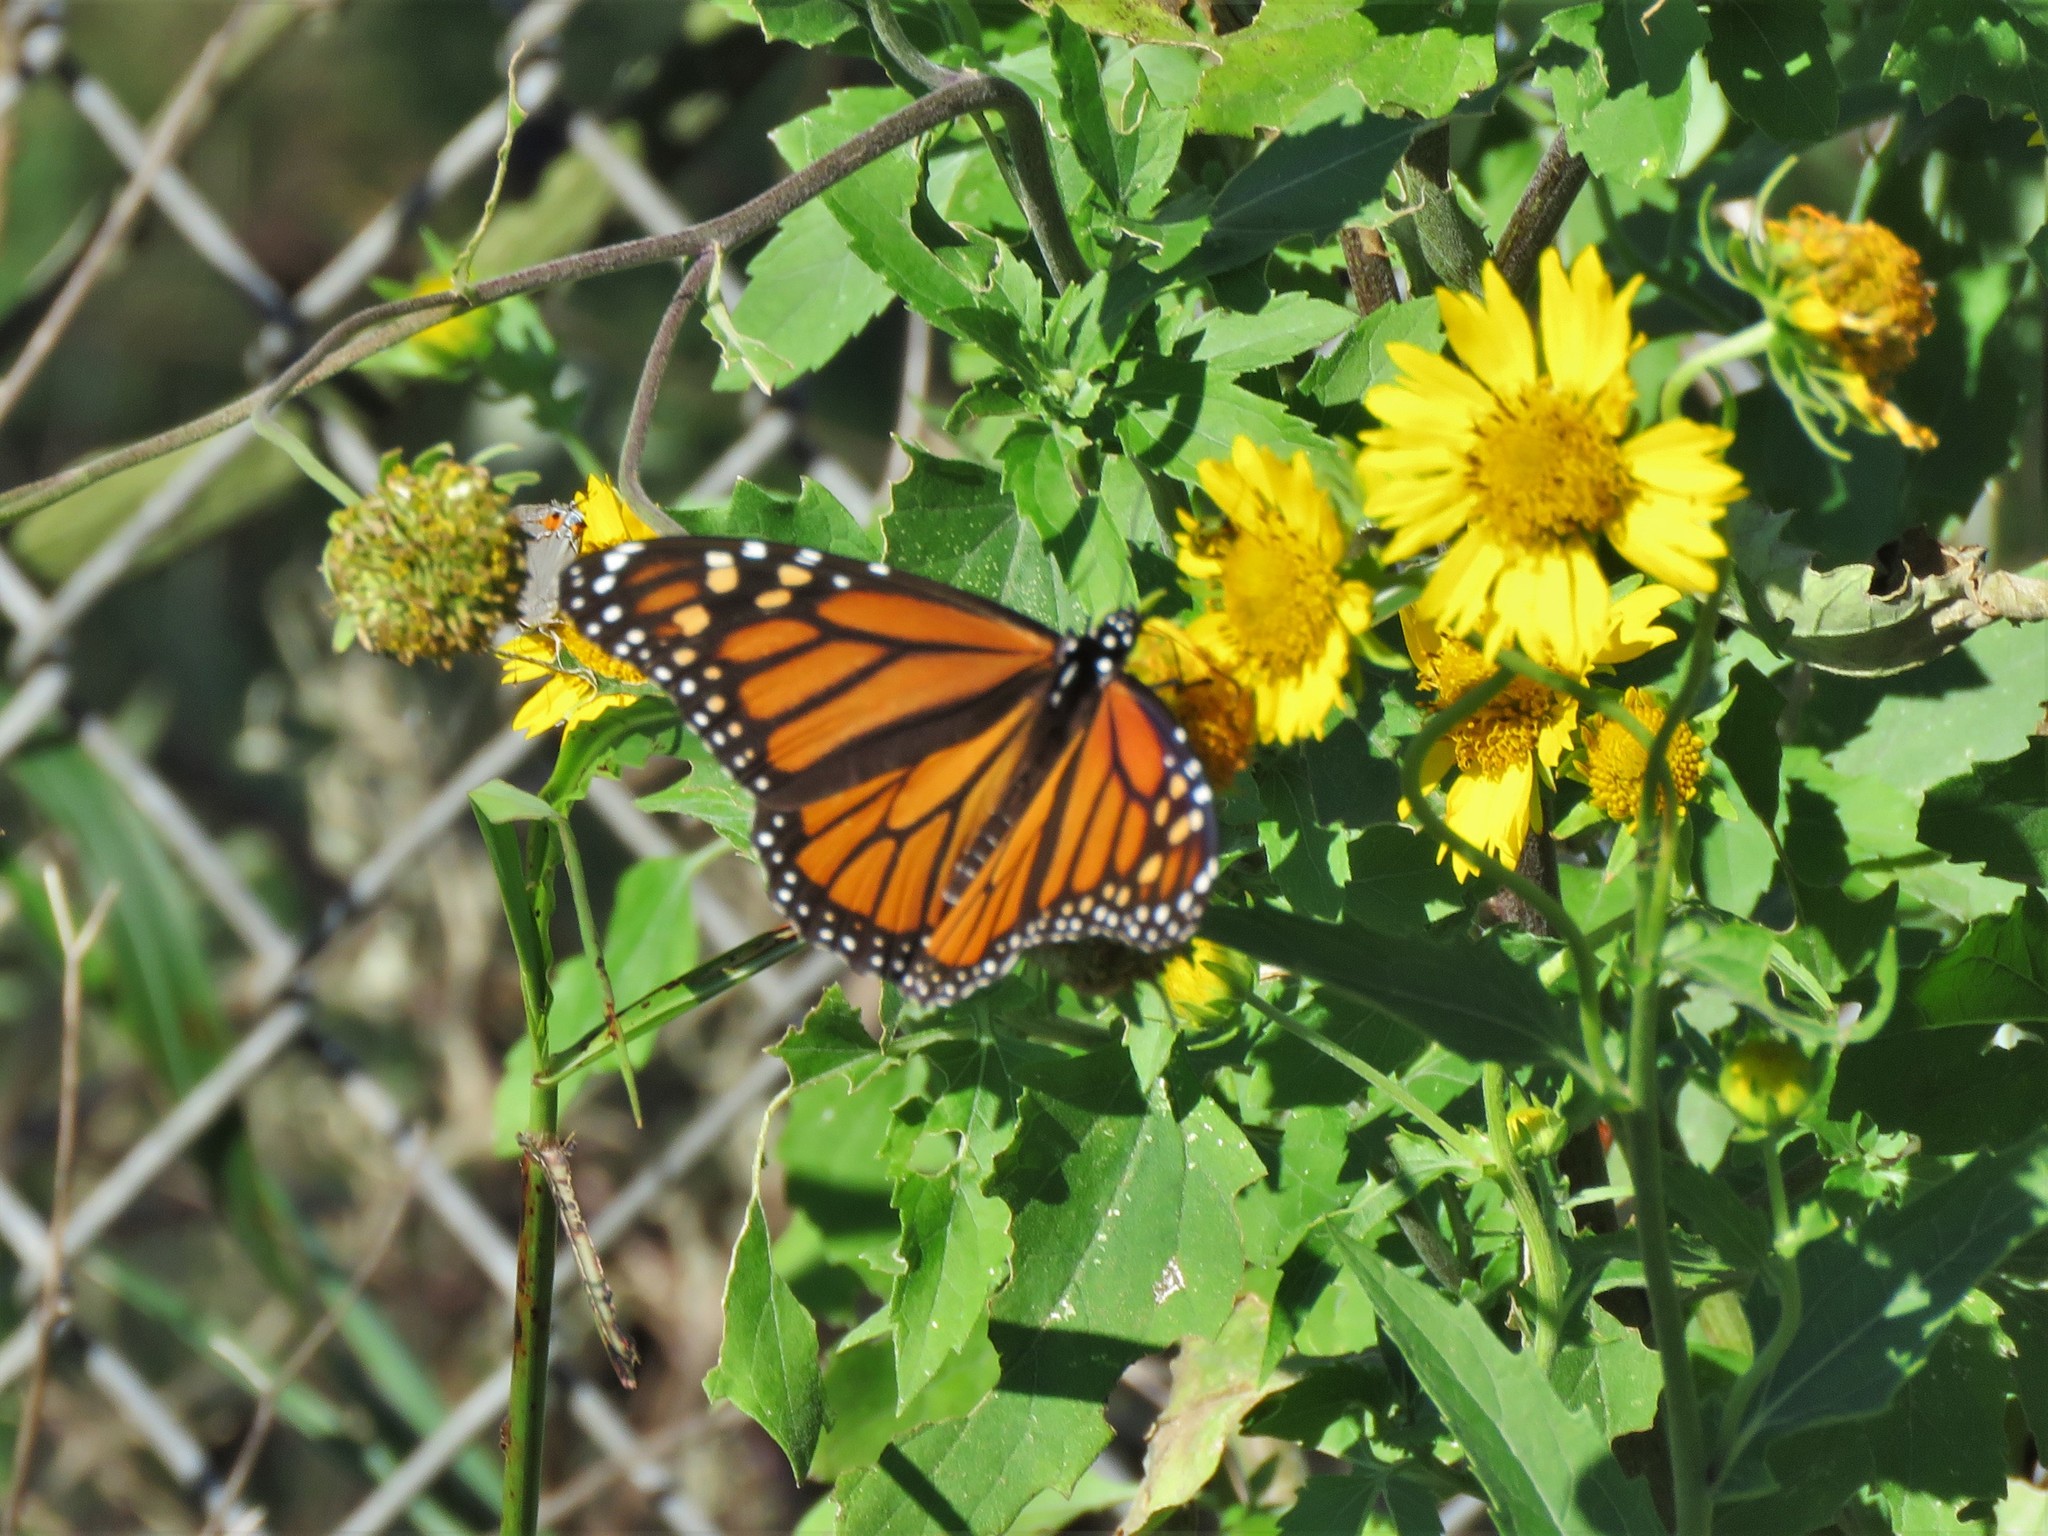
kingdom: Animalia
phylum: Arthropoda
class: Insecta
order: Lepidoptera
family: Nymphalidae
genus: Danaus
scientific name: Danaus plexippus
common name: Monarch
